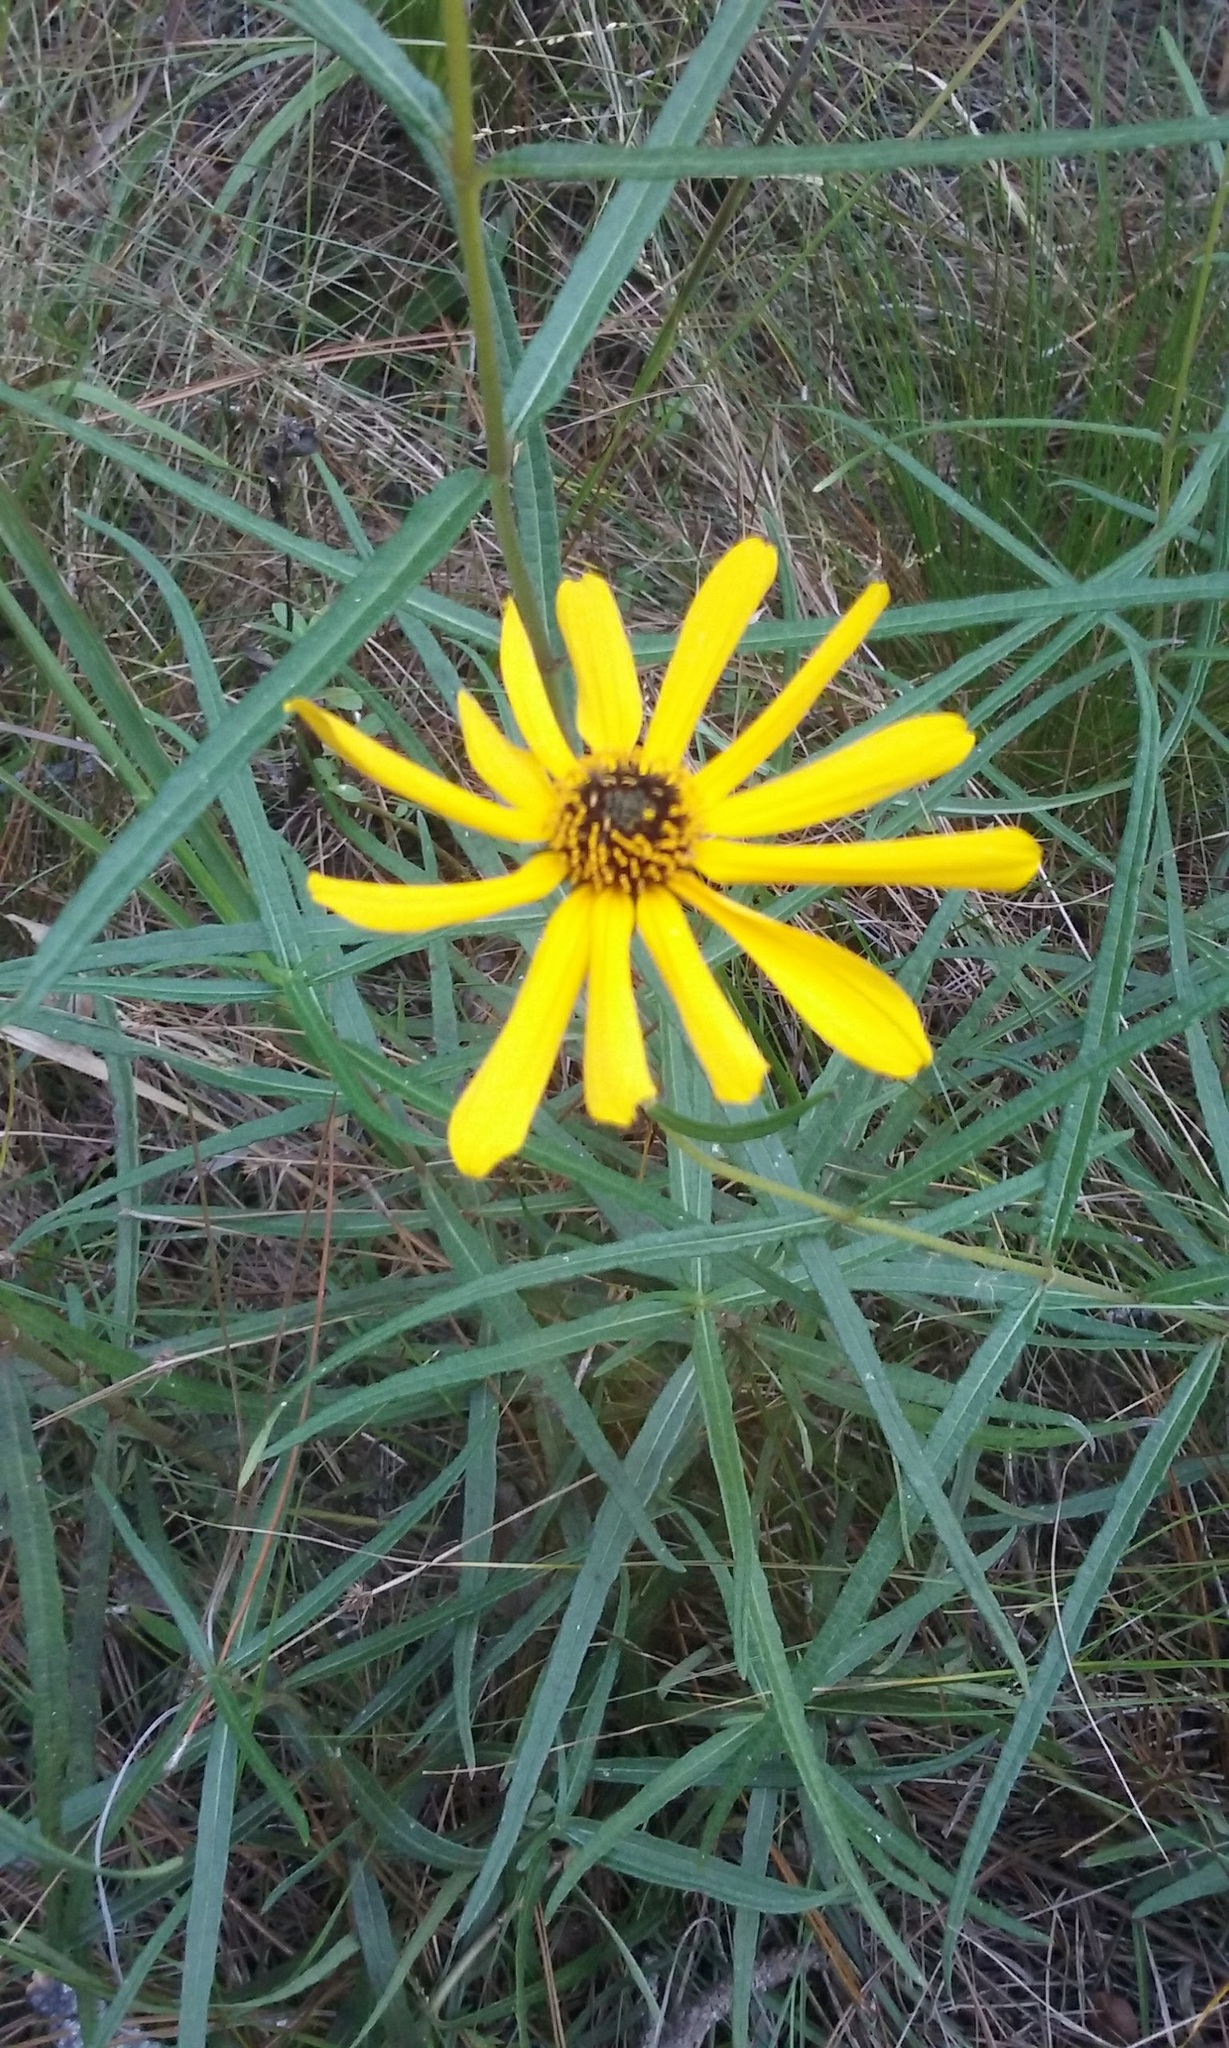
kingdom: Plantae
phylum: Tracheophyta
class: Magnoliopsida
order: Asterales
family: Asteraceae
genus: Helianthus
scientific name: Helianthus angustifolius
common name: Swamp sunflower
